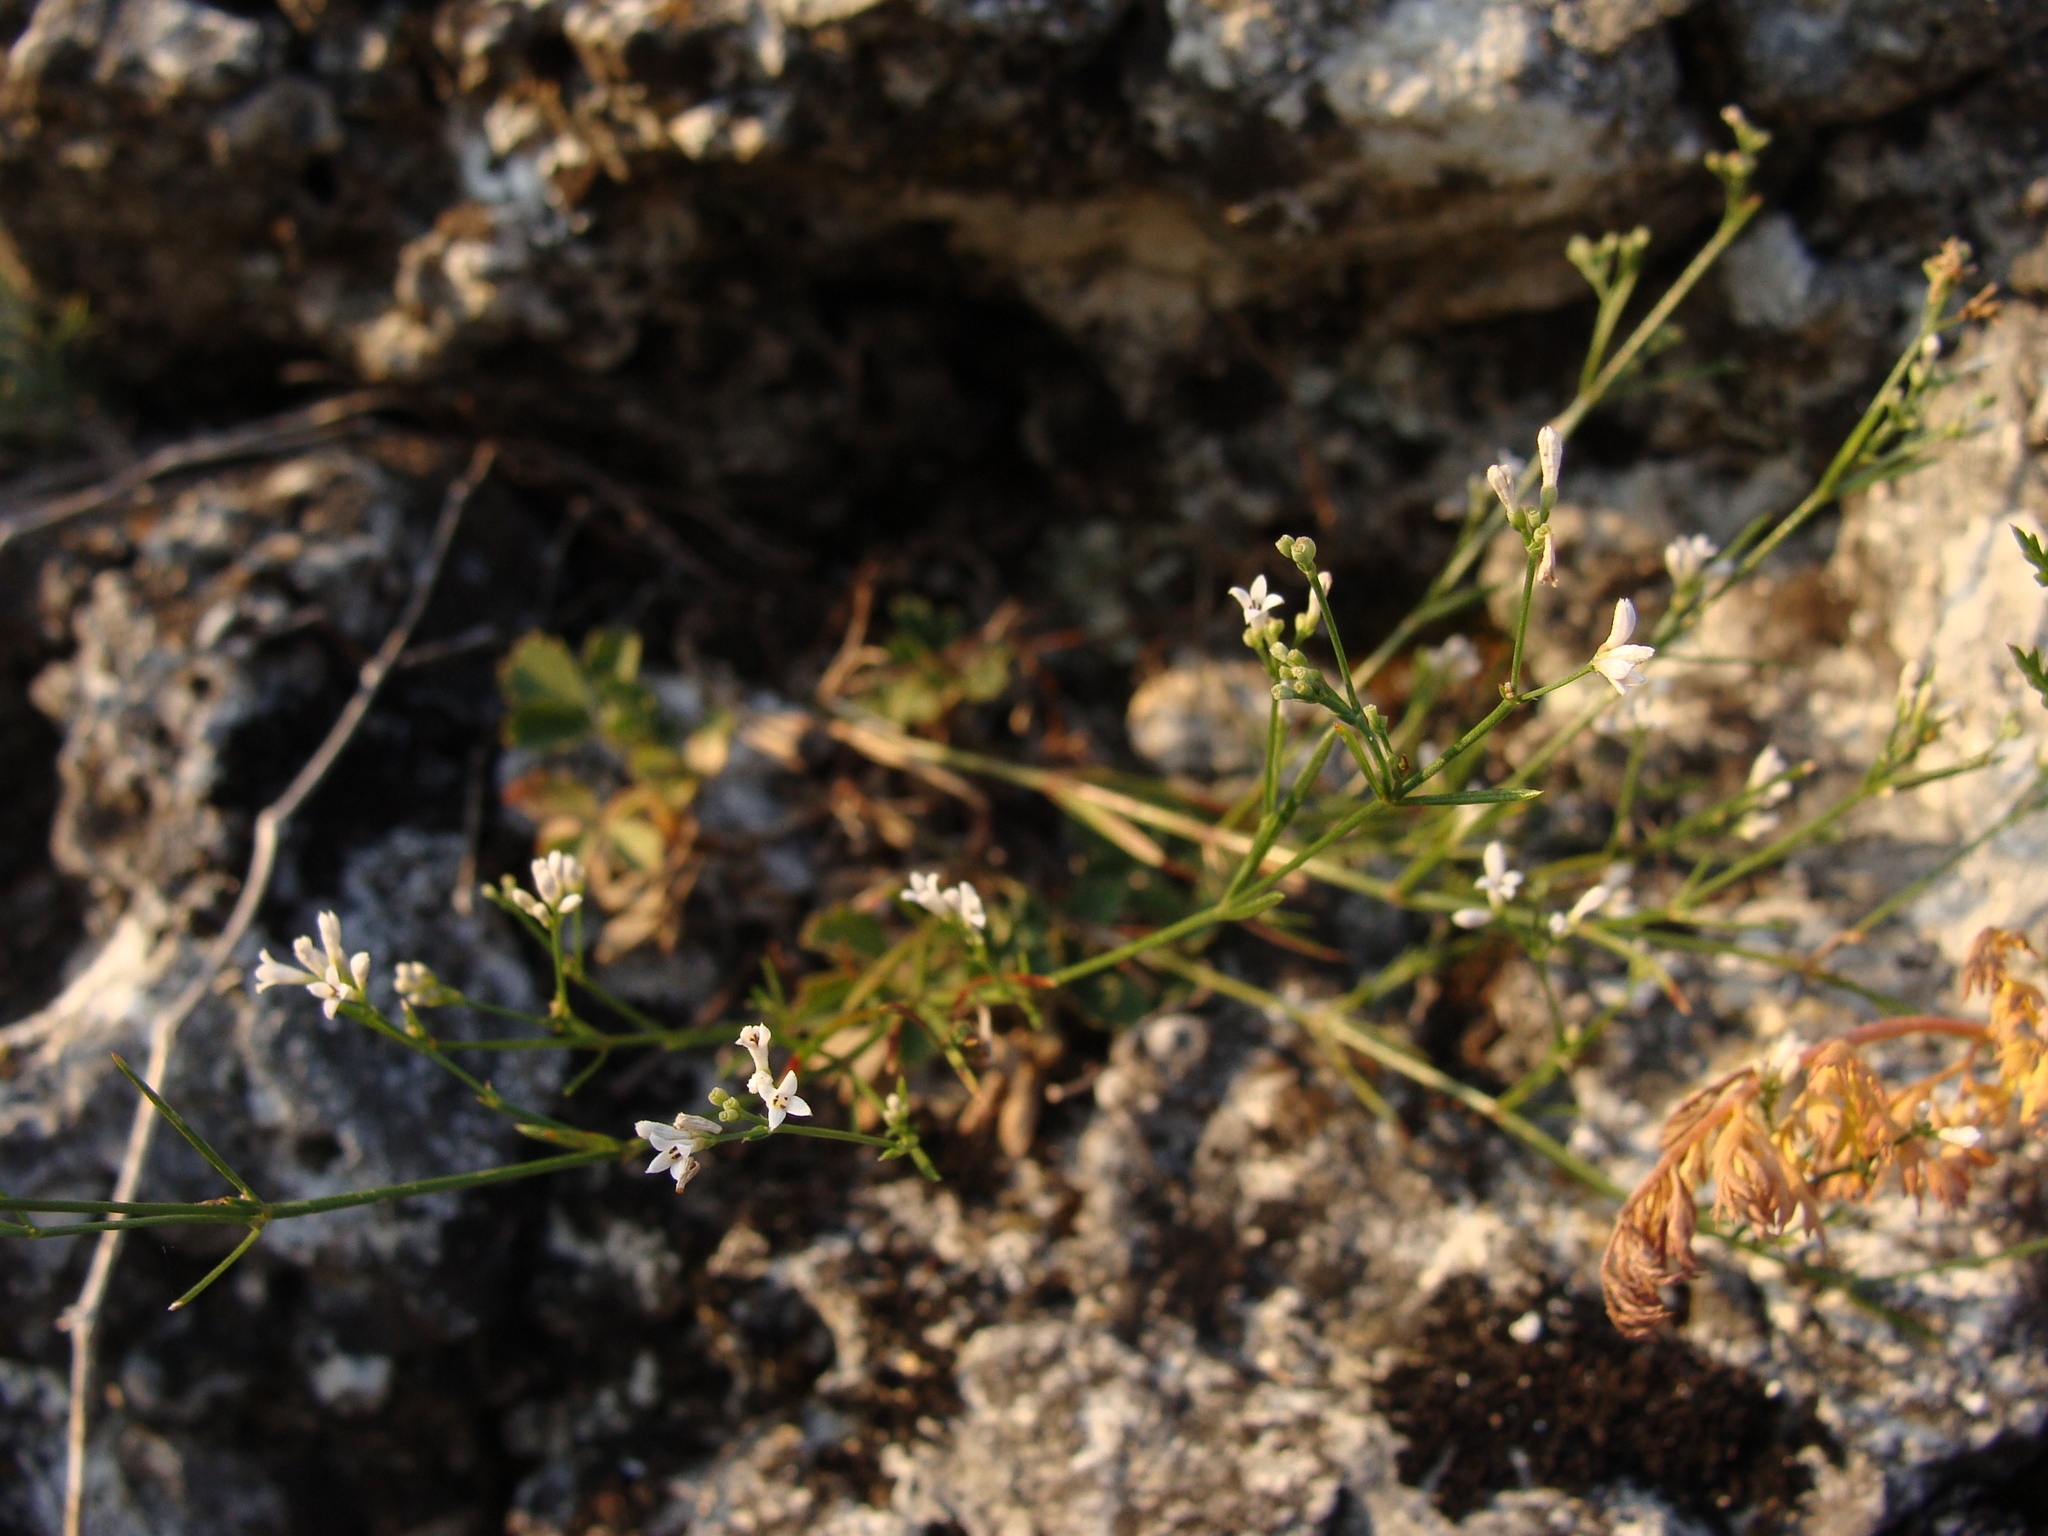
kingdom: Plantae
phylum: Tracheophyta
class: Magnoliopsida
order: Gentianales
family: Rubiaceae
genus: Cynanchica
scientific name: Cynanchica pyrenaica
